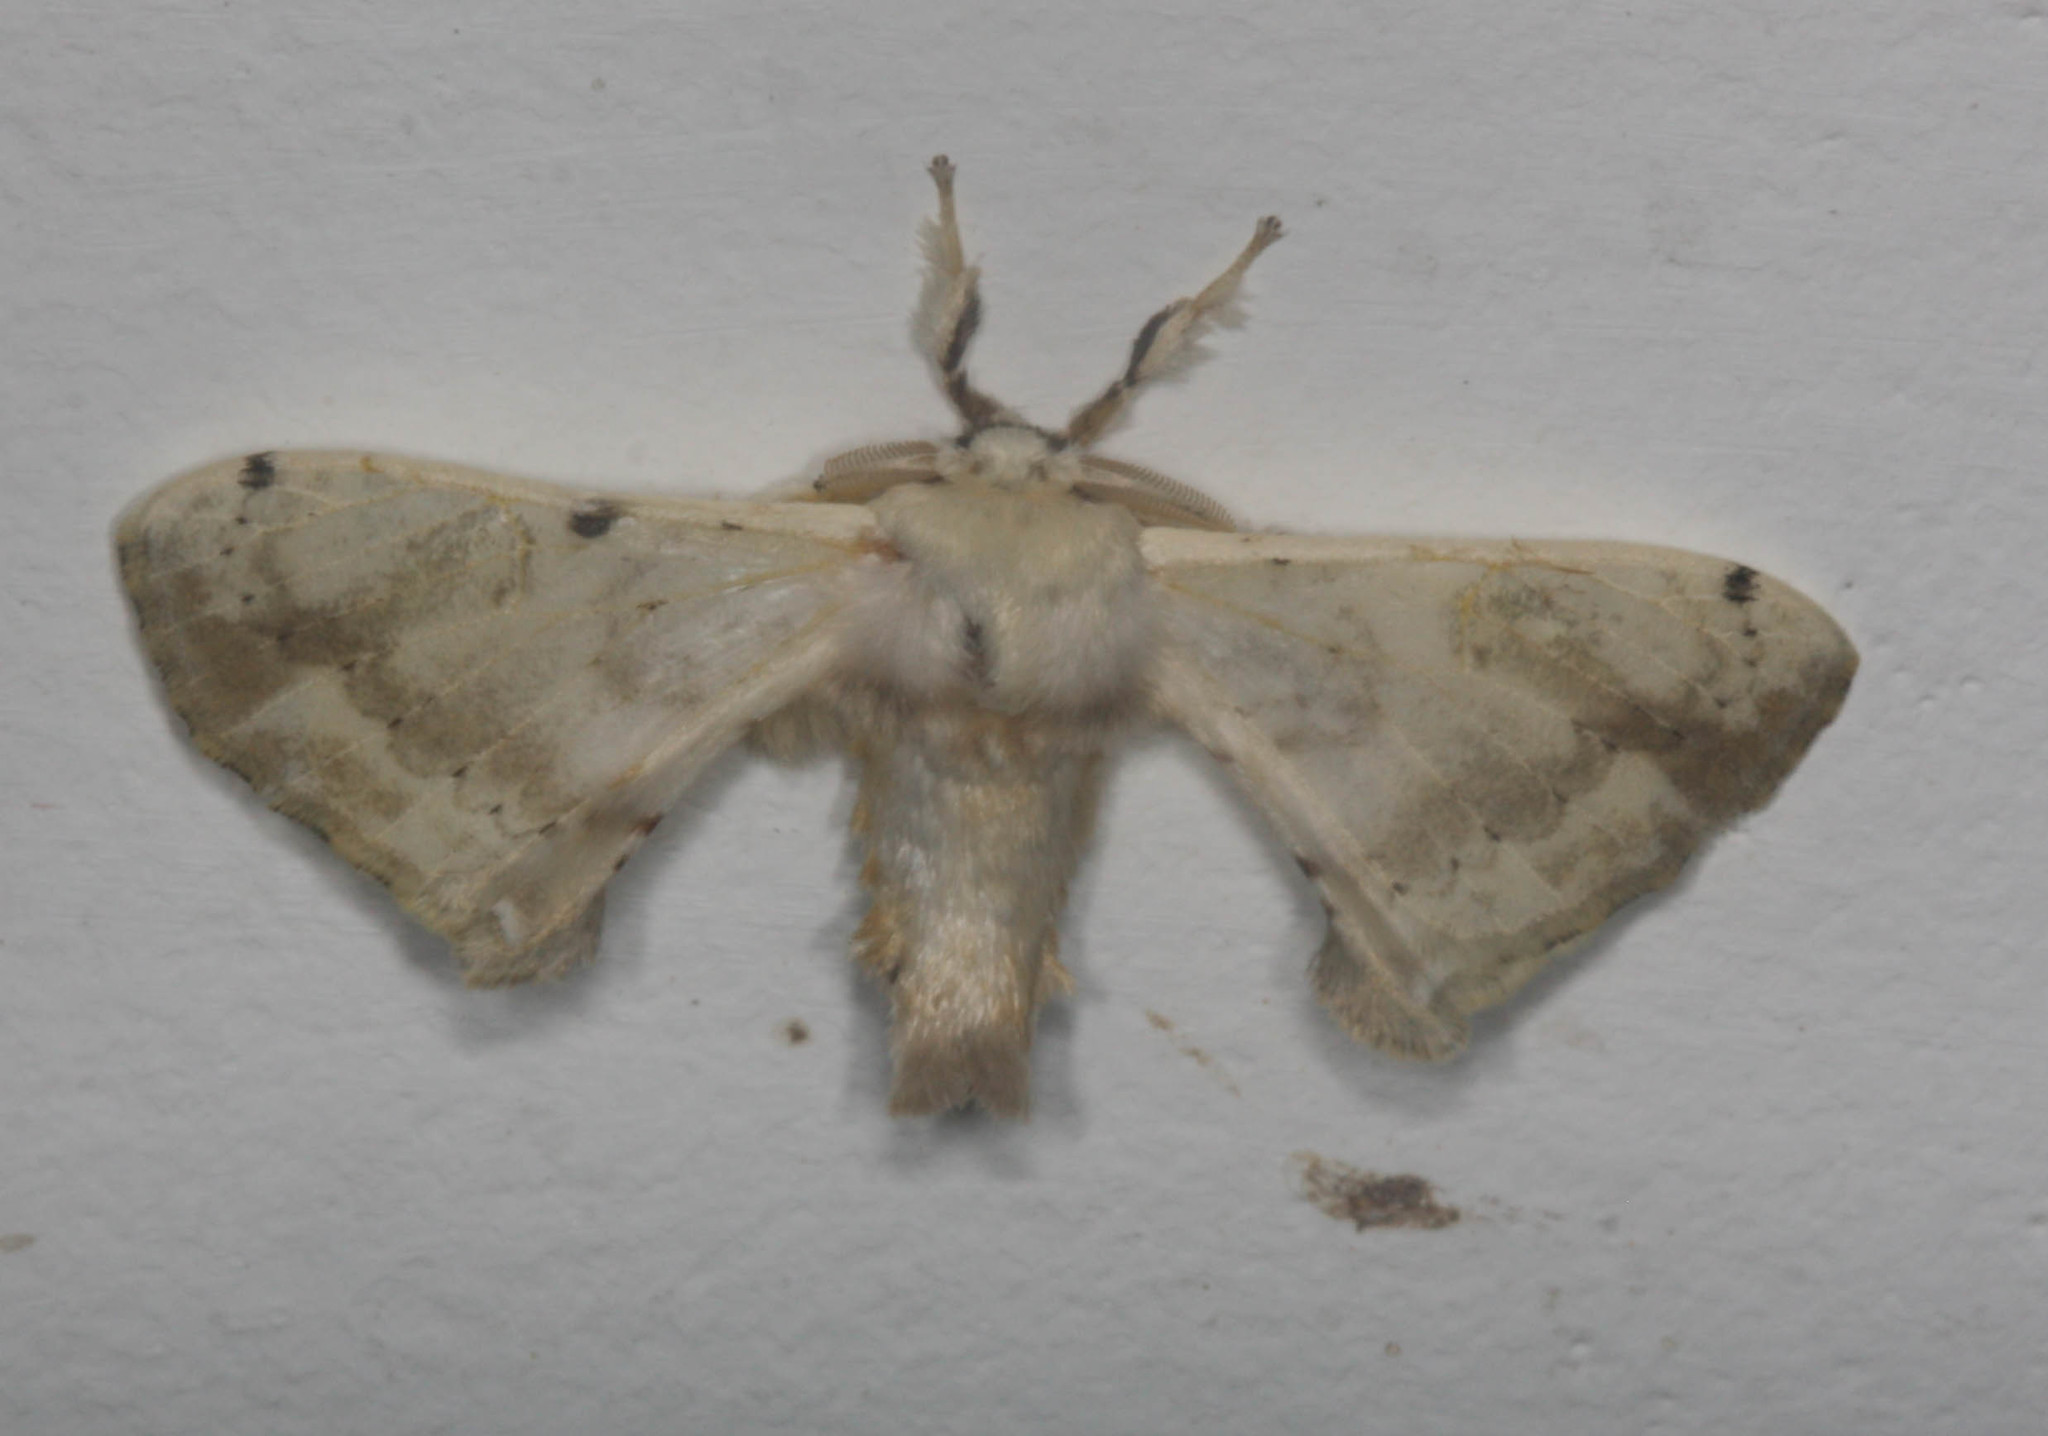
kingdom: Animalia
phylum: Arthropoda
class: Insecta
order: Lepidoptera
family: Bombycidae
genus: Ernolatia
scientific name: Ernolatia moorei
